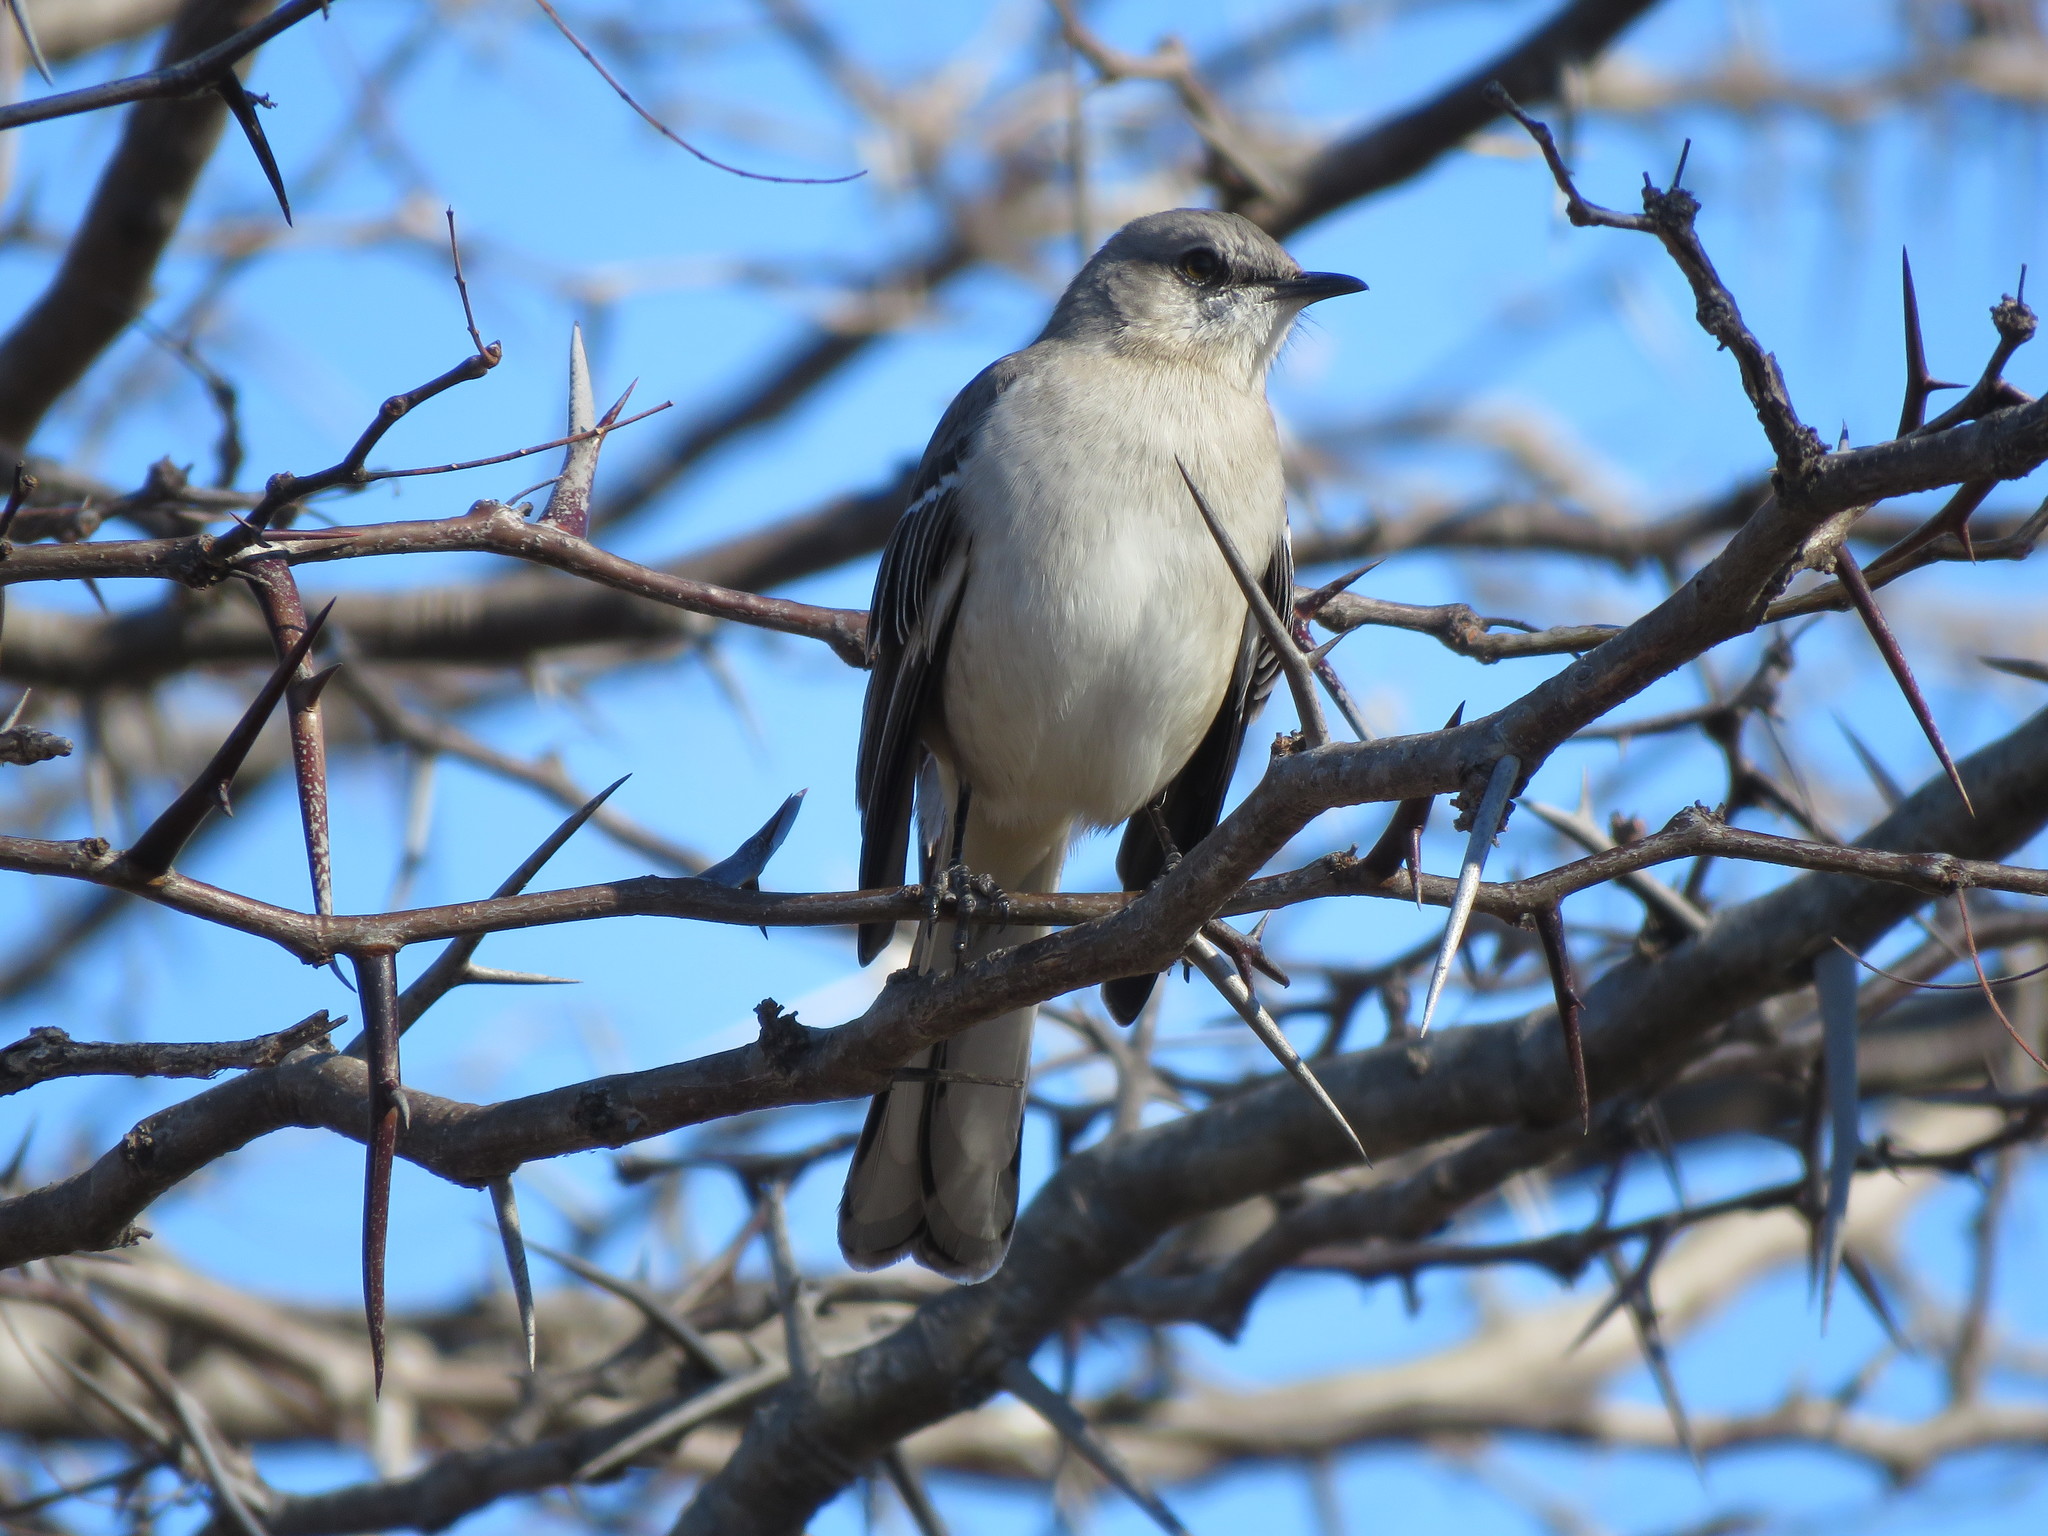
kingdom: Animalia
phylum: Chordata
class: Aves
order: Passeriformes
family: Mimidae
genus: Mimus
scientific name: Mimus polyglottos
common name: Northern mockingbird
